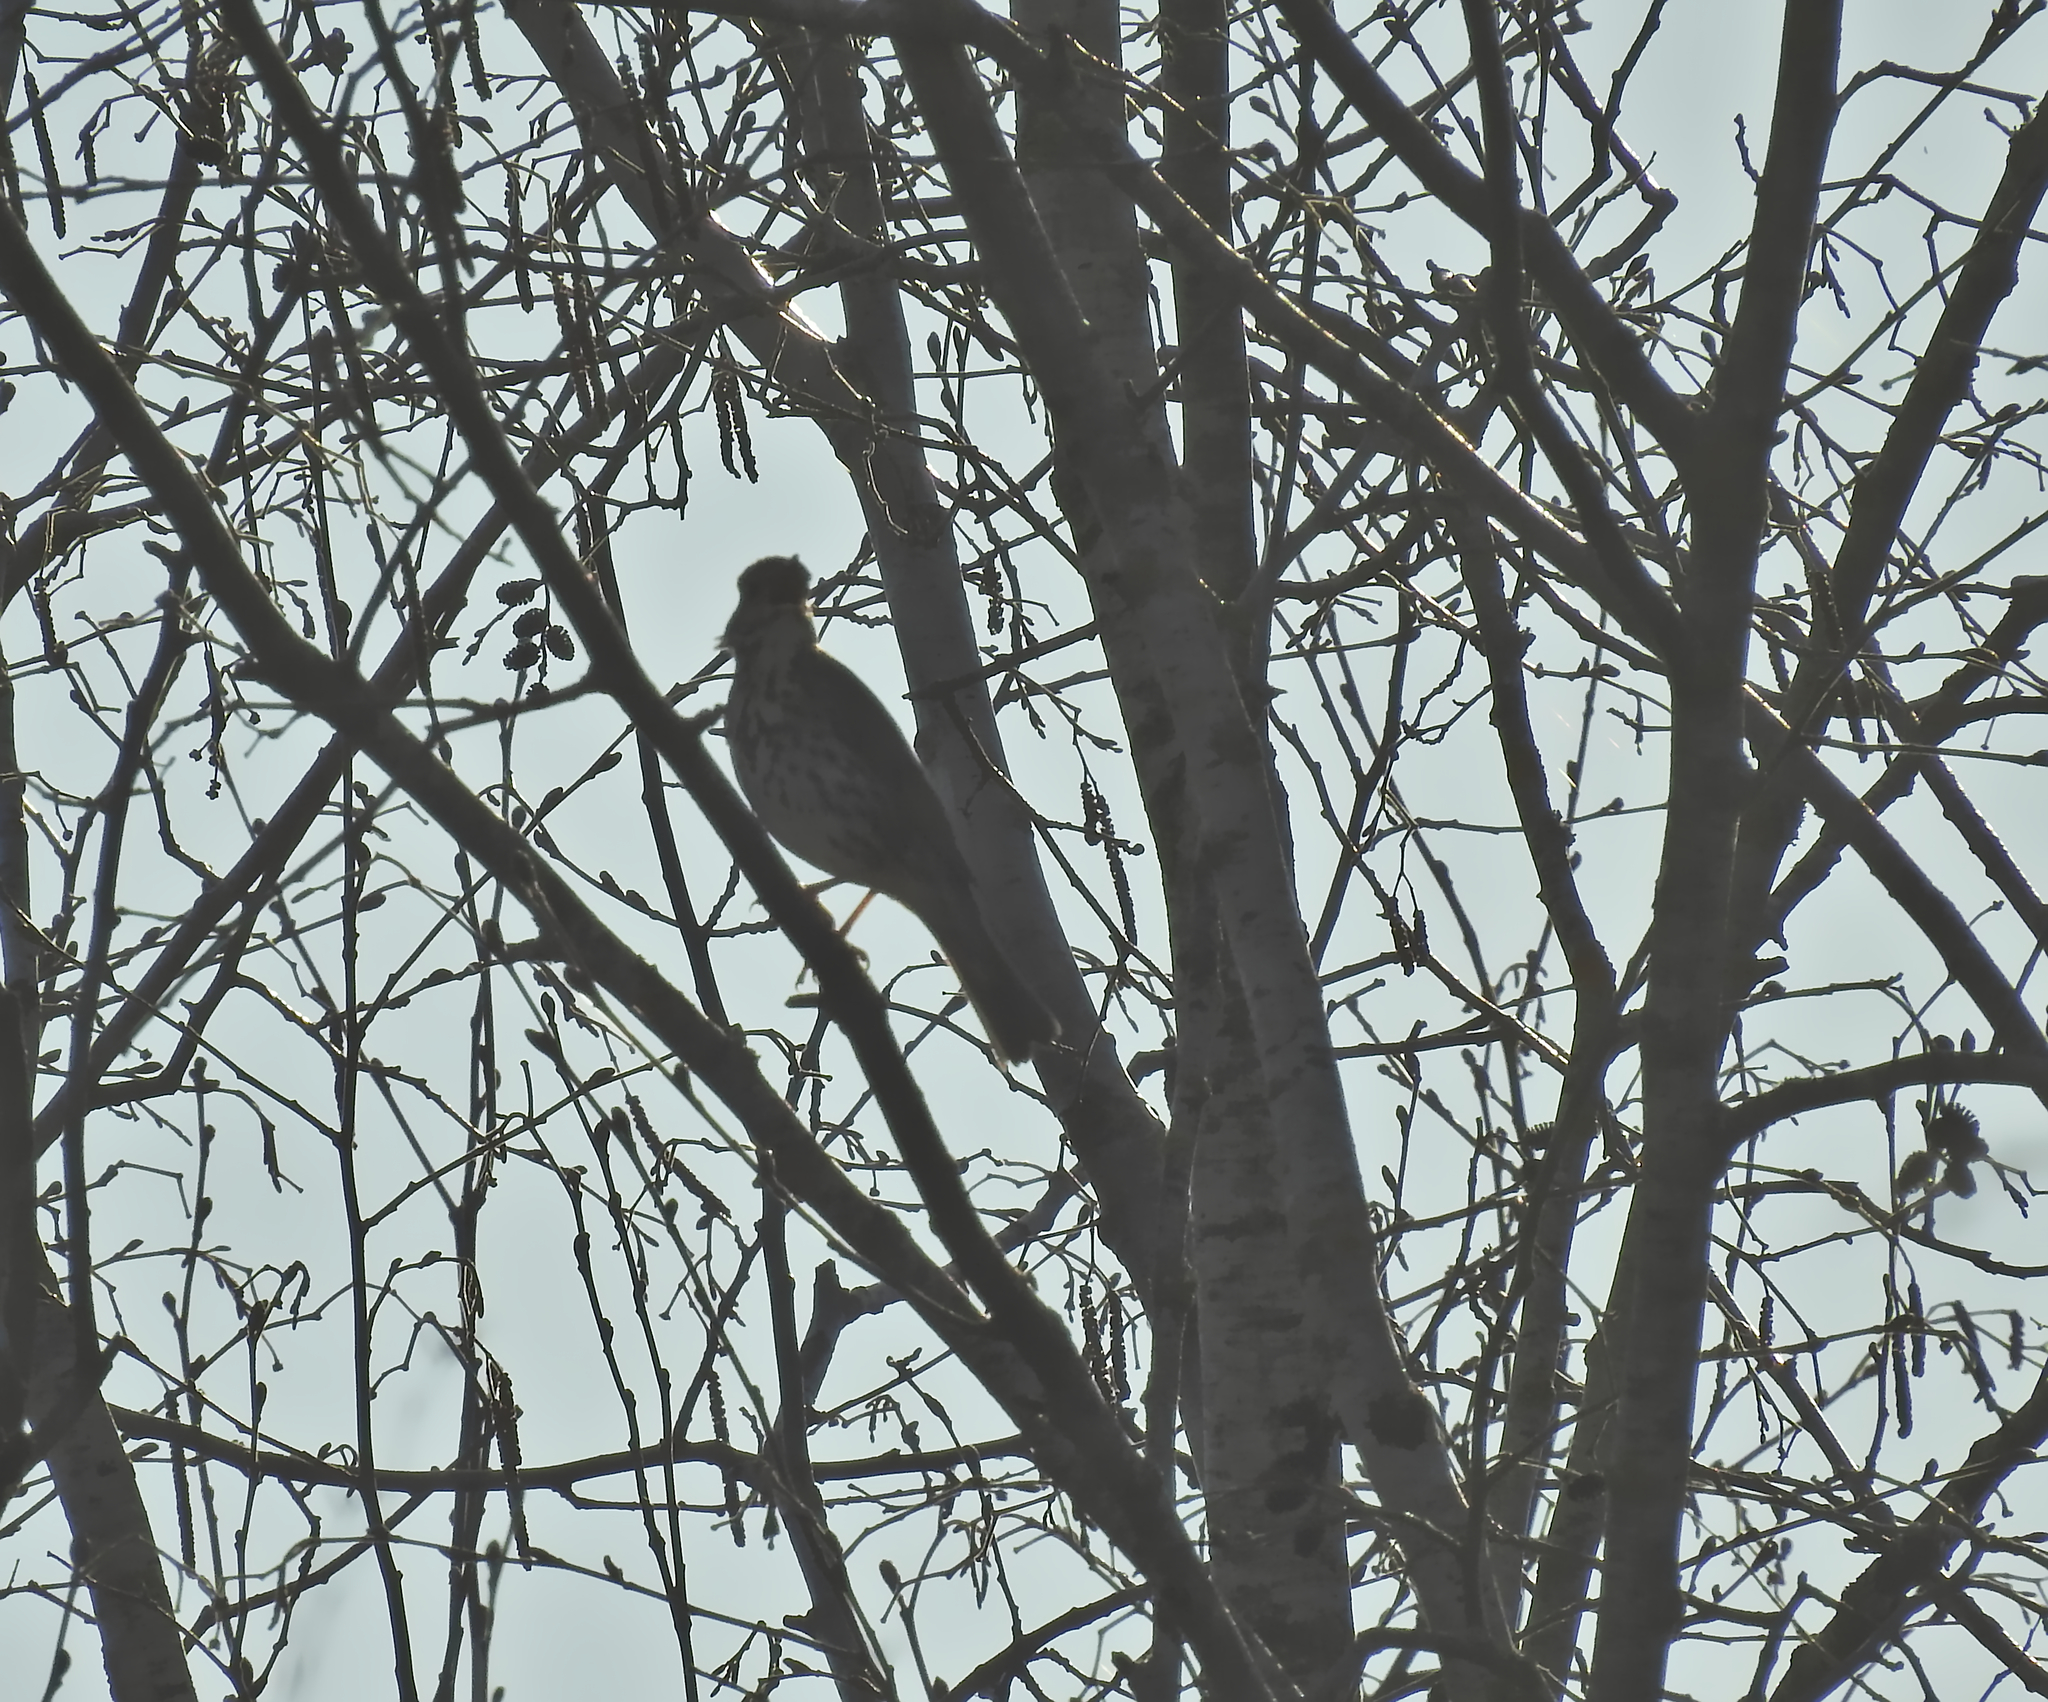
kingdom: Animalia
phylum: Chordata
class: Aves
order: Passeriformes
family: Turdidae
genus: Turdus
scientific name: Turdus philomelos
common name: Song thrush
